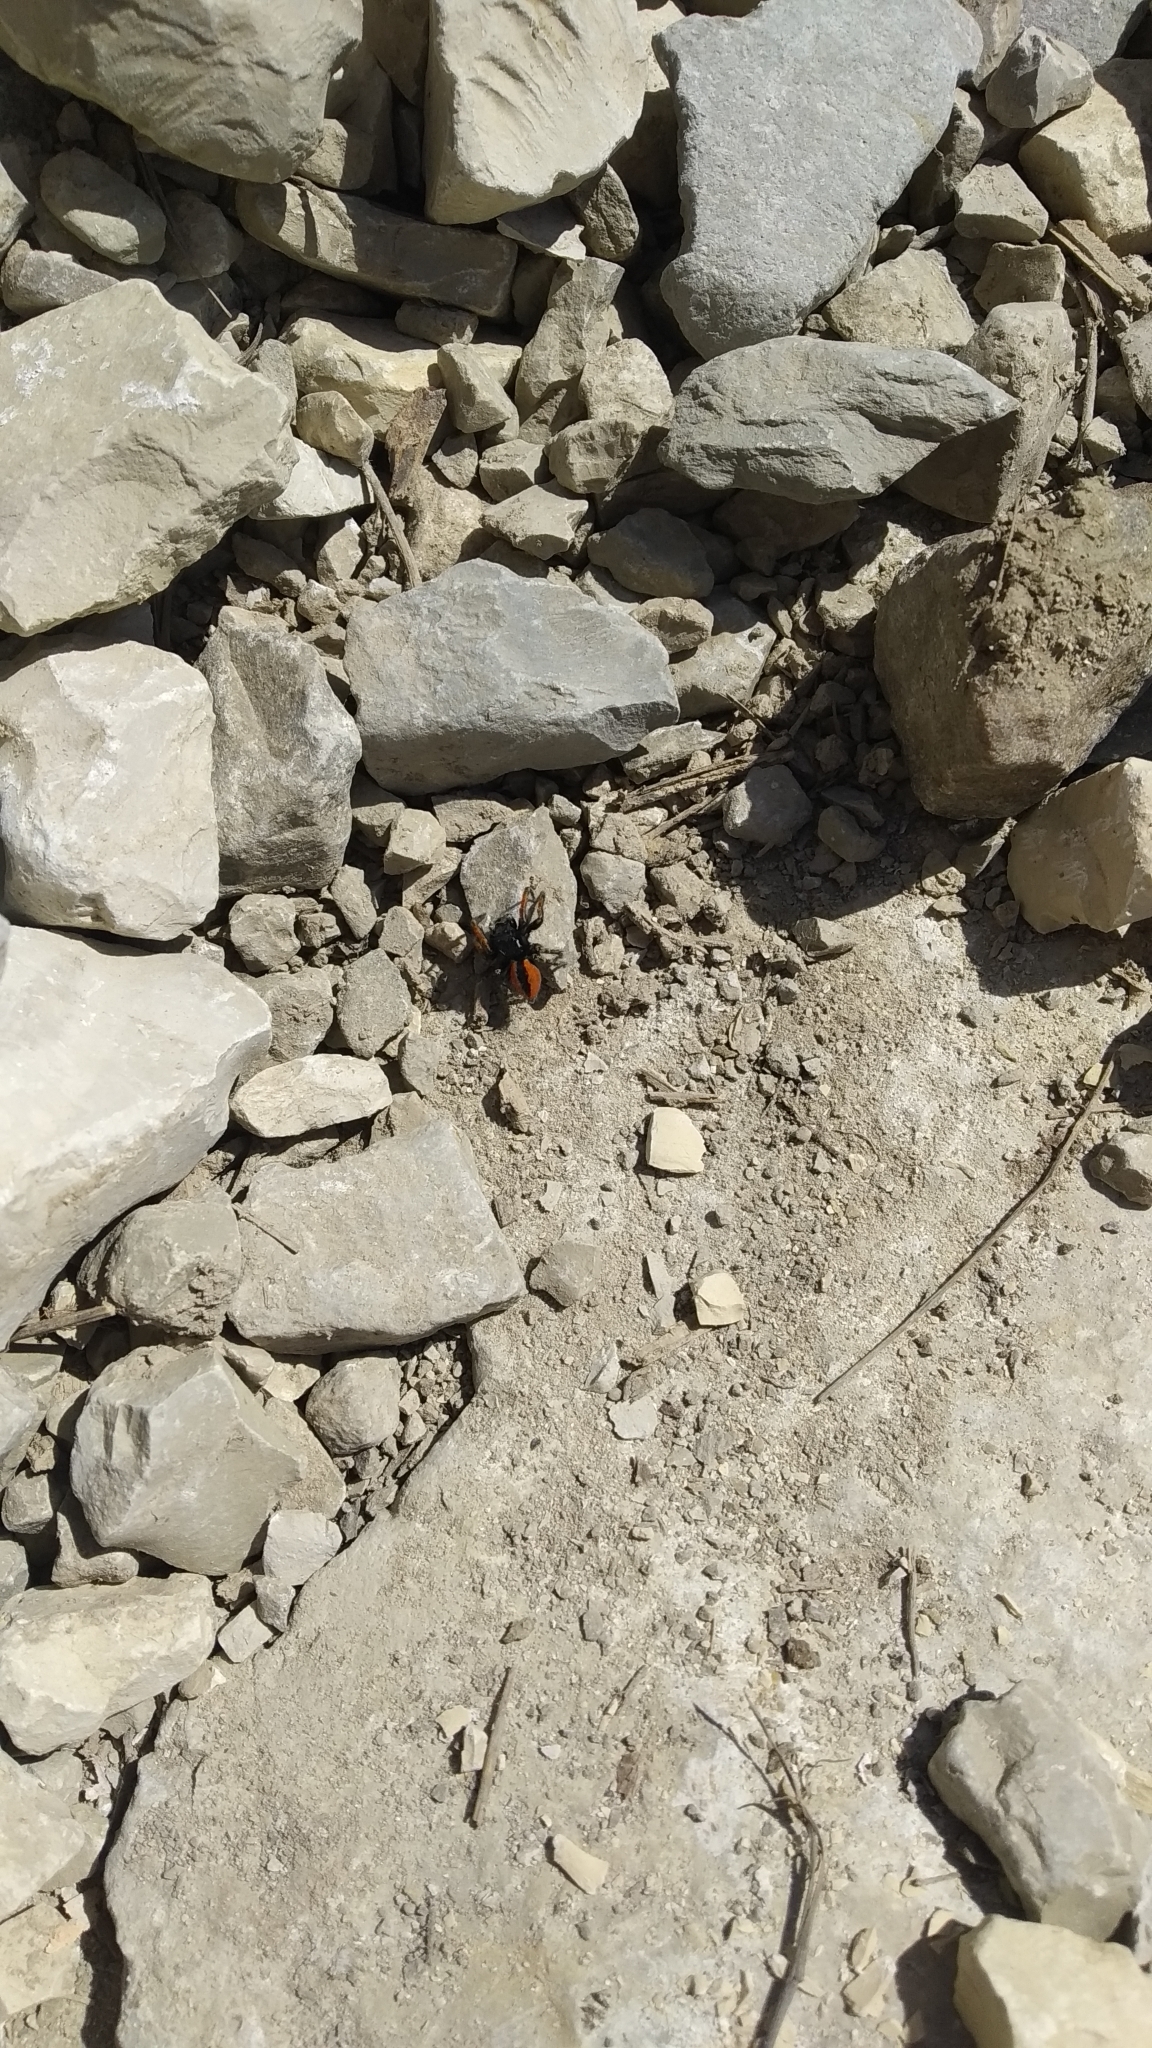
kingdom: Animalia
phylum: Arthropoda
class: Arachnida
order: Araneae
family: Salticidae
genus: Philaeus
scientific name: Philaeus chrysops
